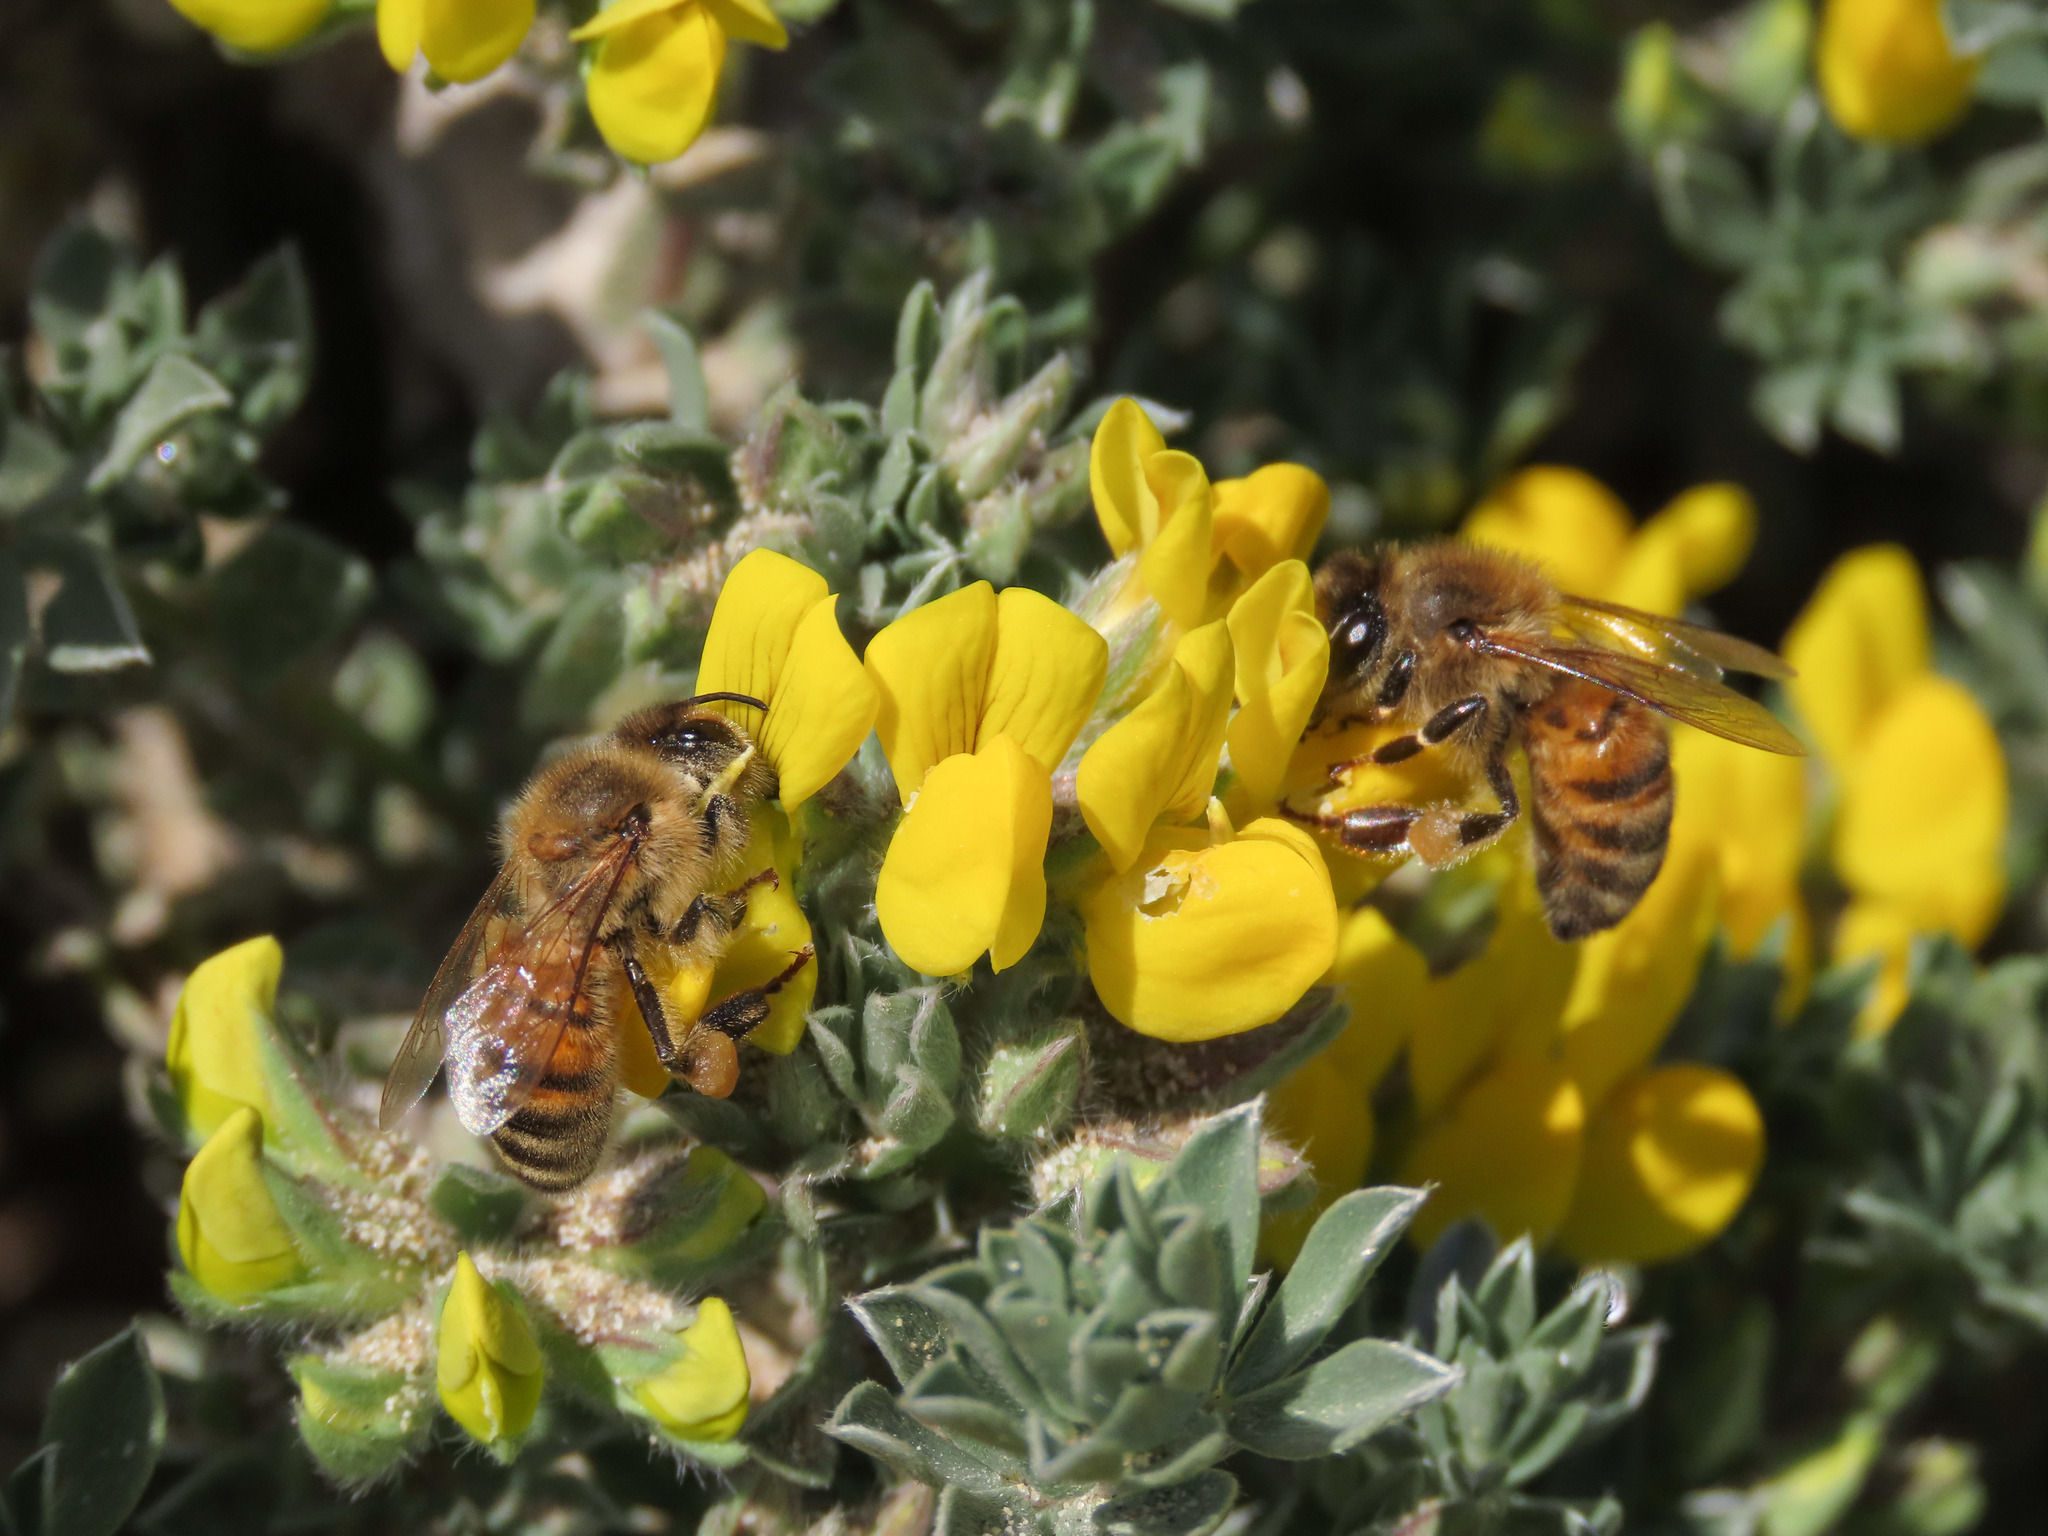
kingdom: Plantae
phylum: Tracheophyta
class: Magnoliopsida
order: Fabales
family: Fabaceae
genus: Lotus
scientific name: Lotus creticus
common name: Cretan bird's-foot trefoil
